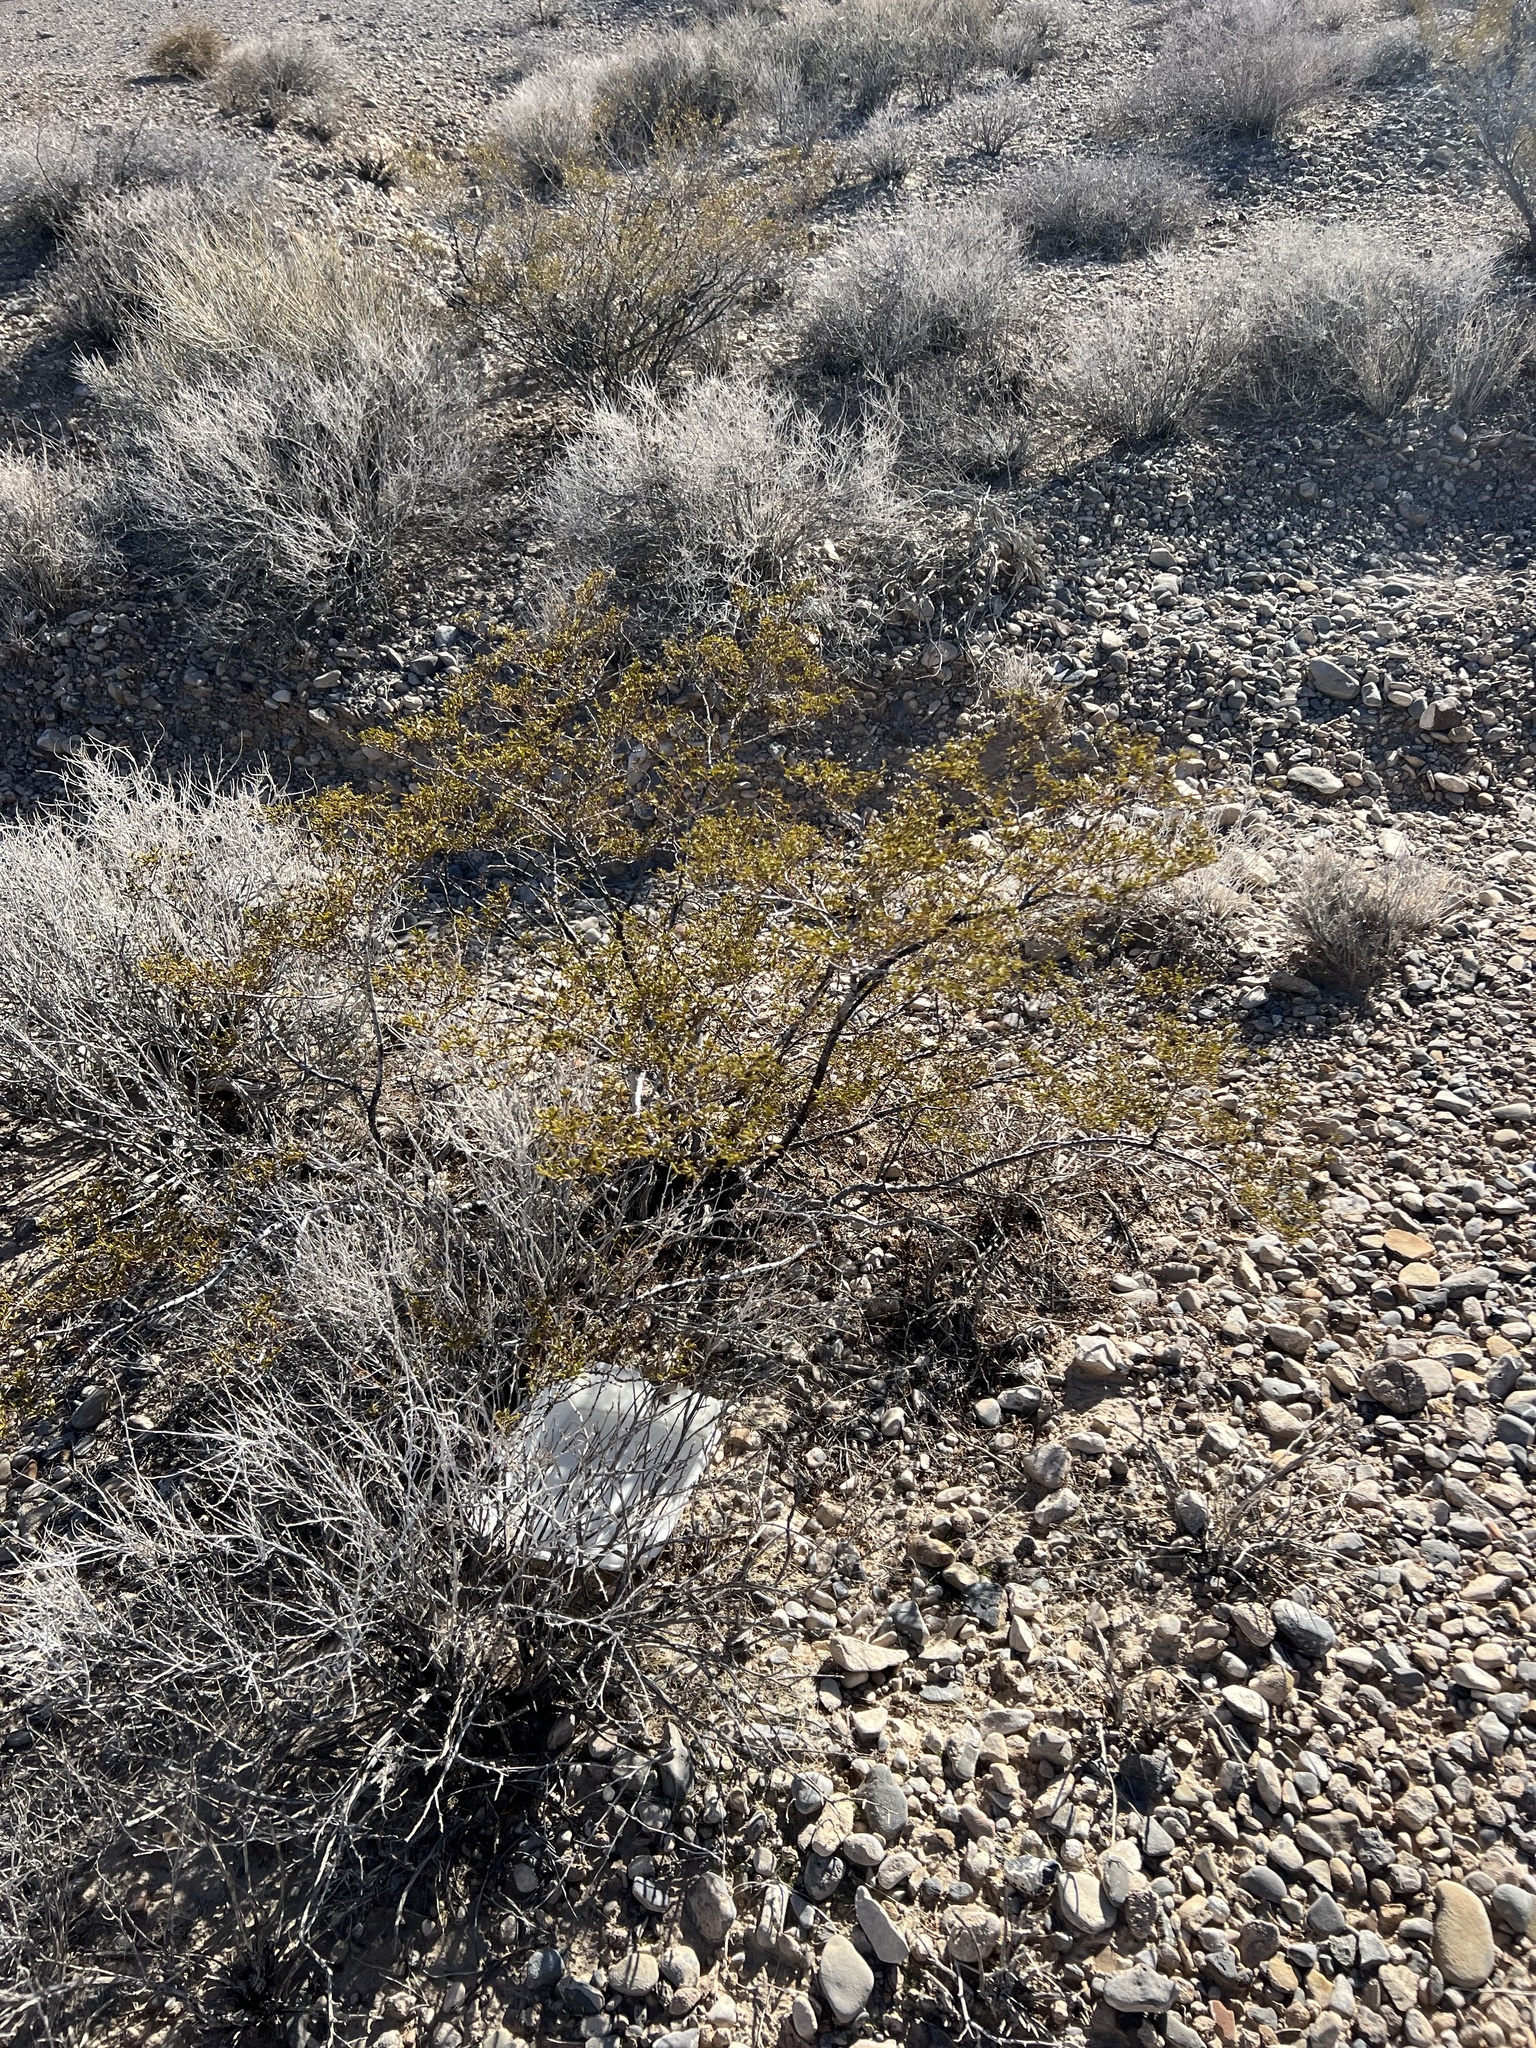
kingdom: Plantae
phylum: Tracheophyta
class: Magnoliopsida
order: Zygophyllales
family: Zygophyllaceae
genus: Larrea
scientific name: Larrea tridentata
